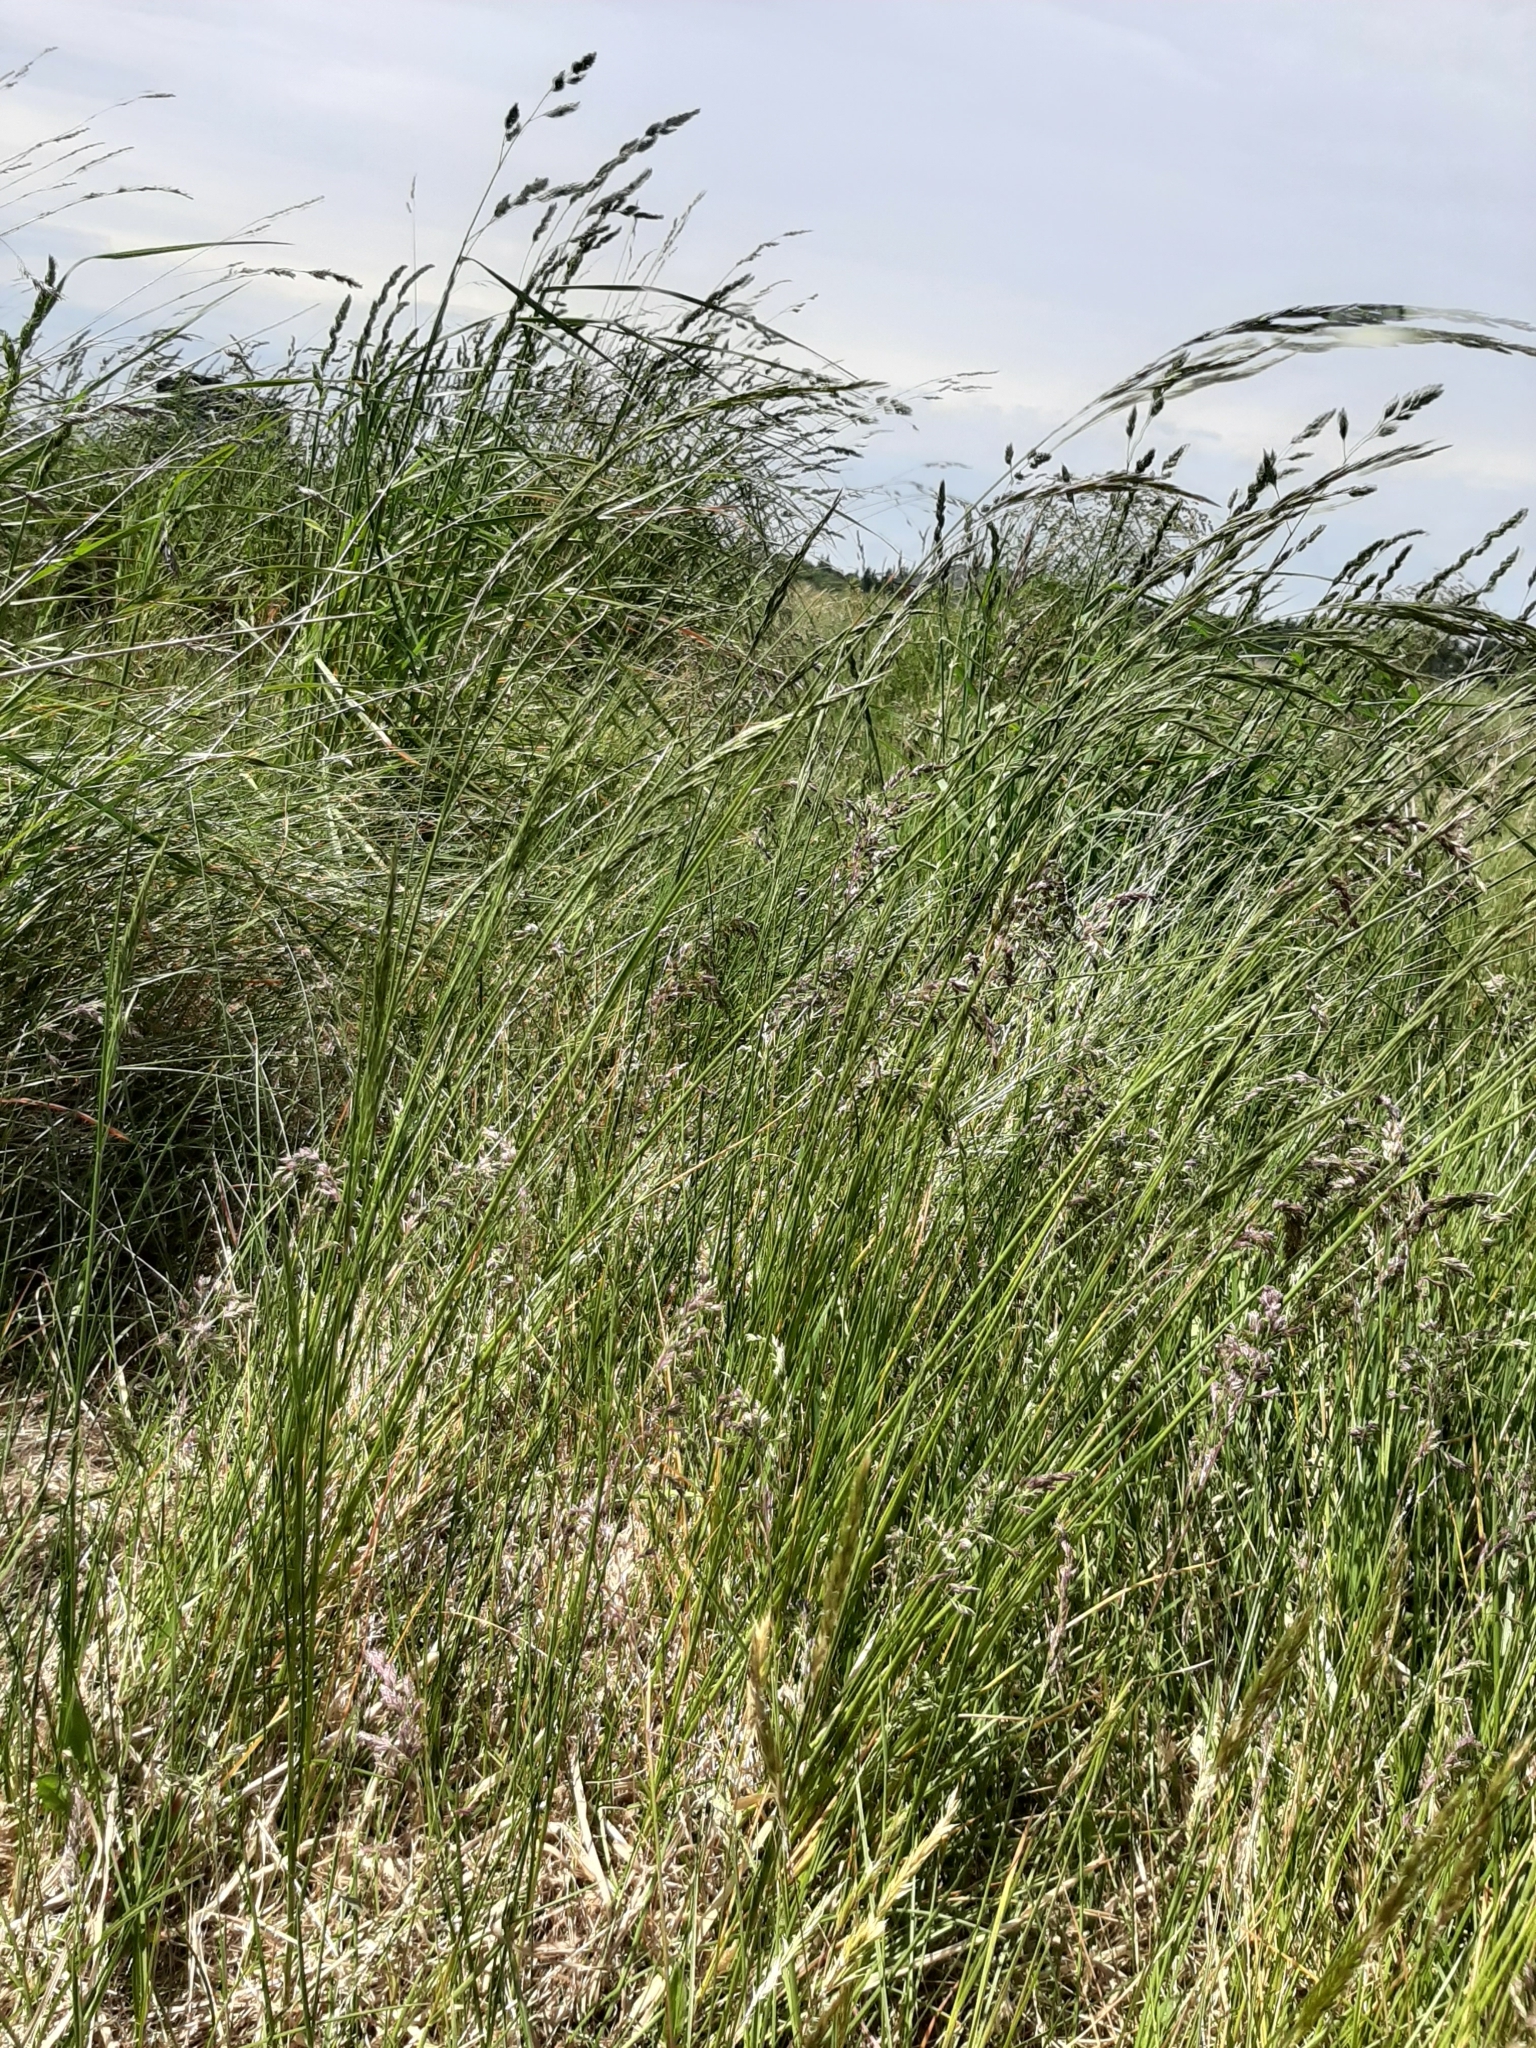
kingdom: Plantae
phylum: Tracheophyta
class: Liliopsida
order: Poales
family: Poaceae
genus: Festuca
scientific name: Festuca rubra
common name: Red fescue
